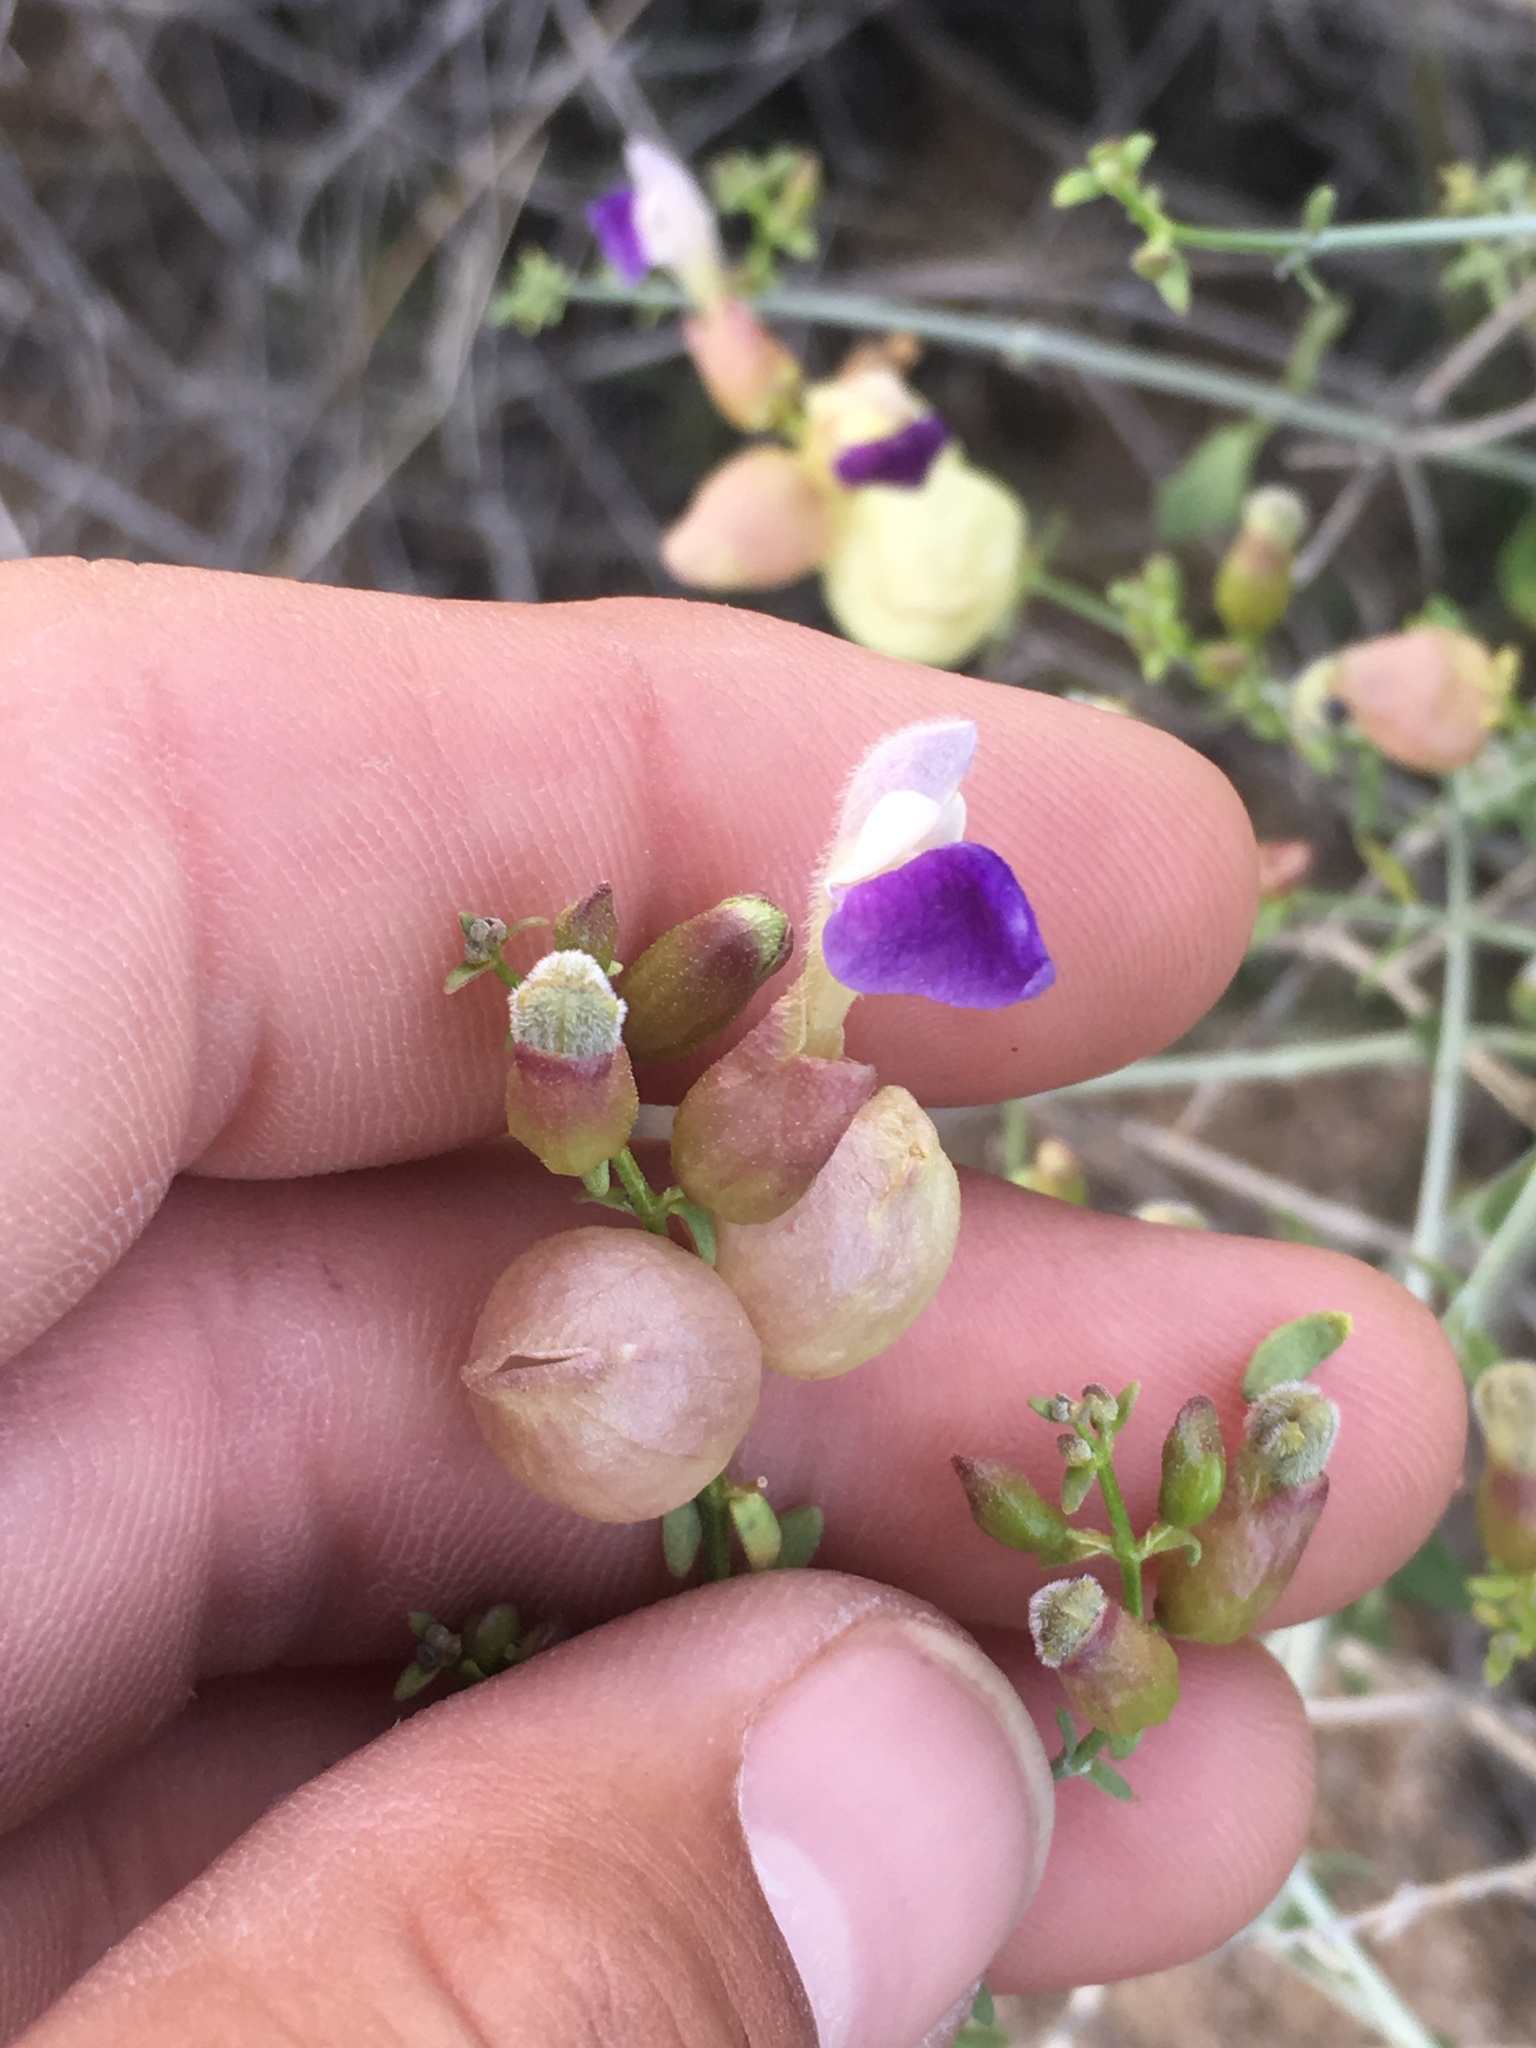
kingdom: Plantae
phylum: Tracheophyta
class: Magnoliopsida
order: Lamiales
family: Lamiaceae
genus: Scutellaria
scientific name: Scutellaria mexicana
